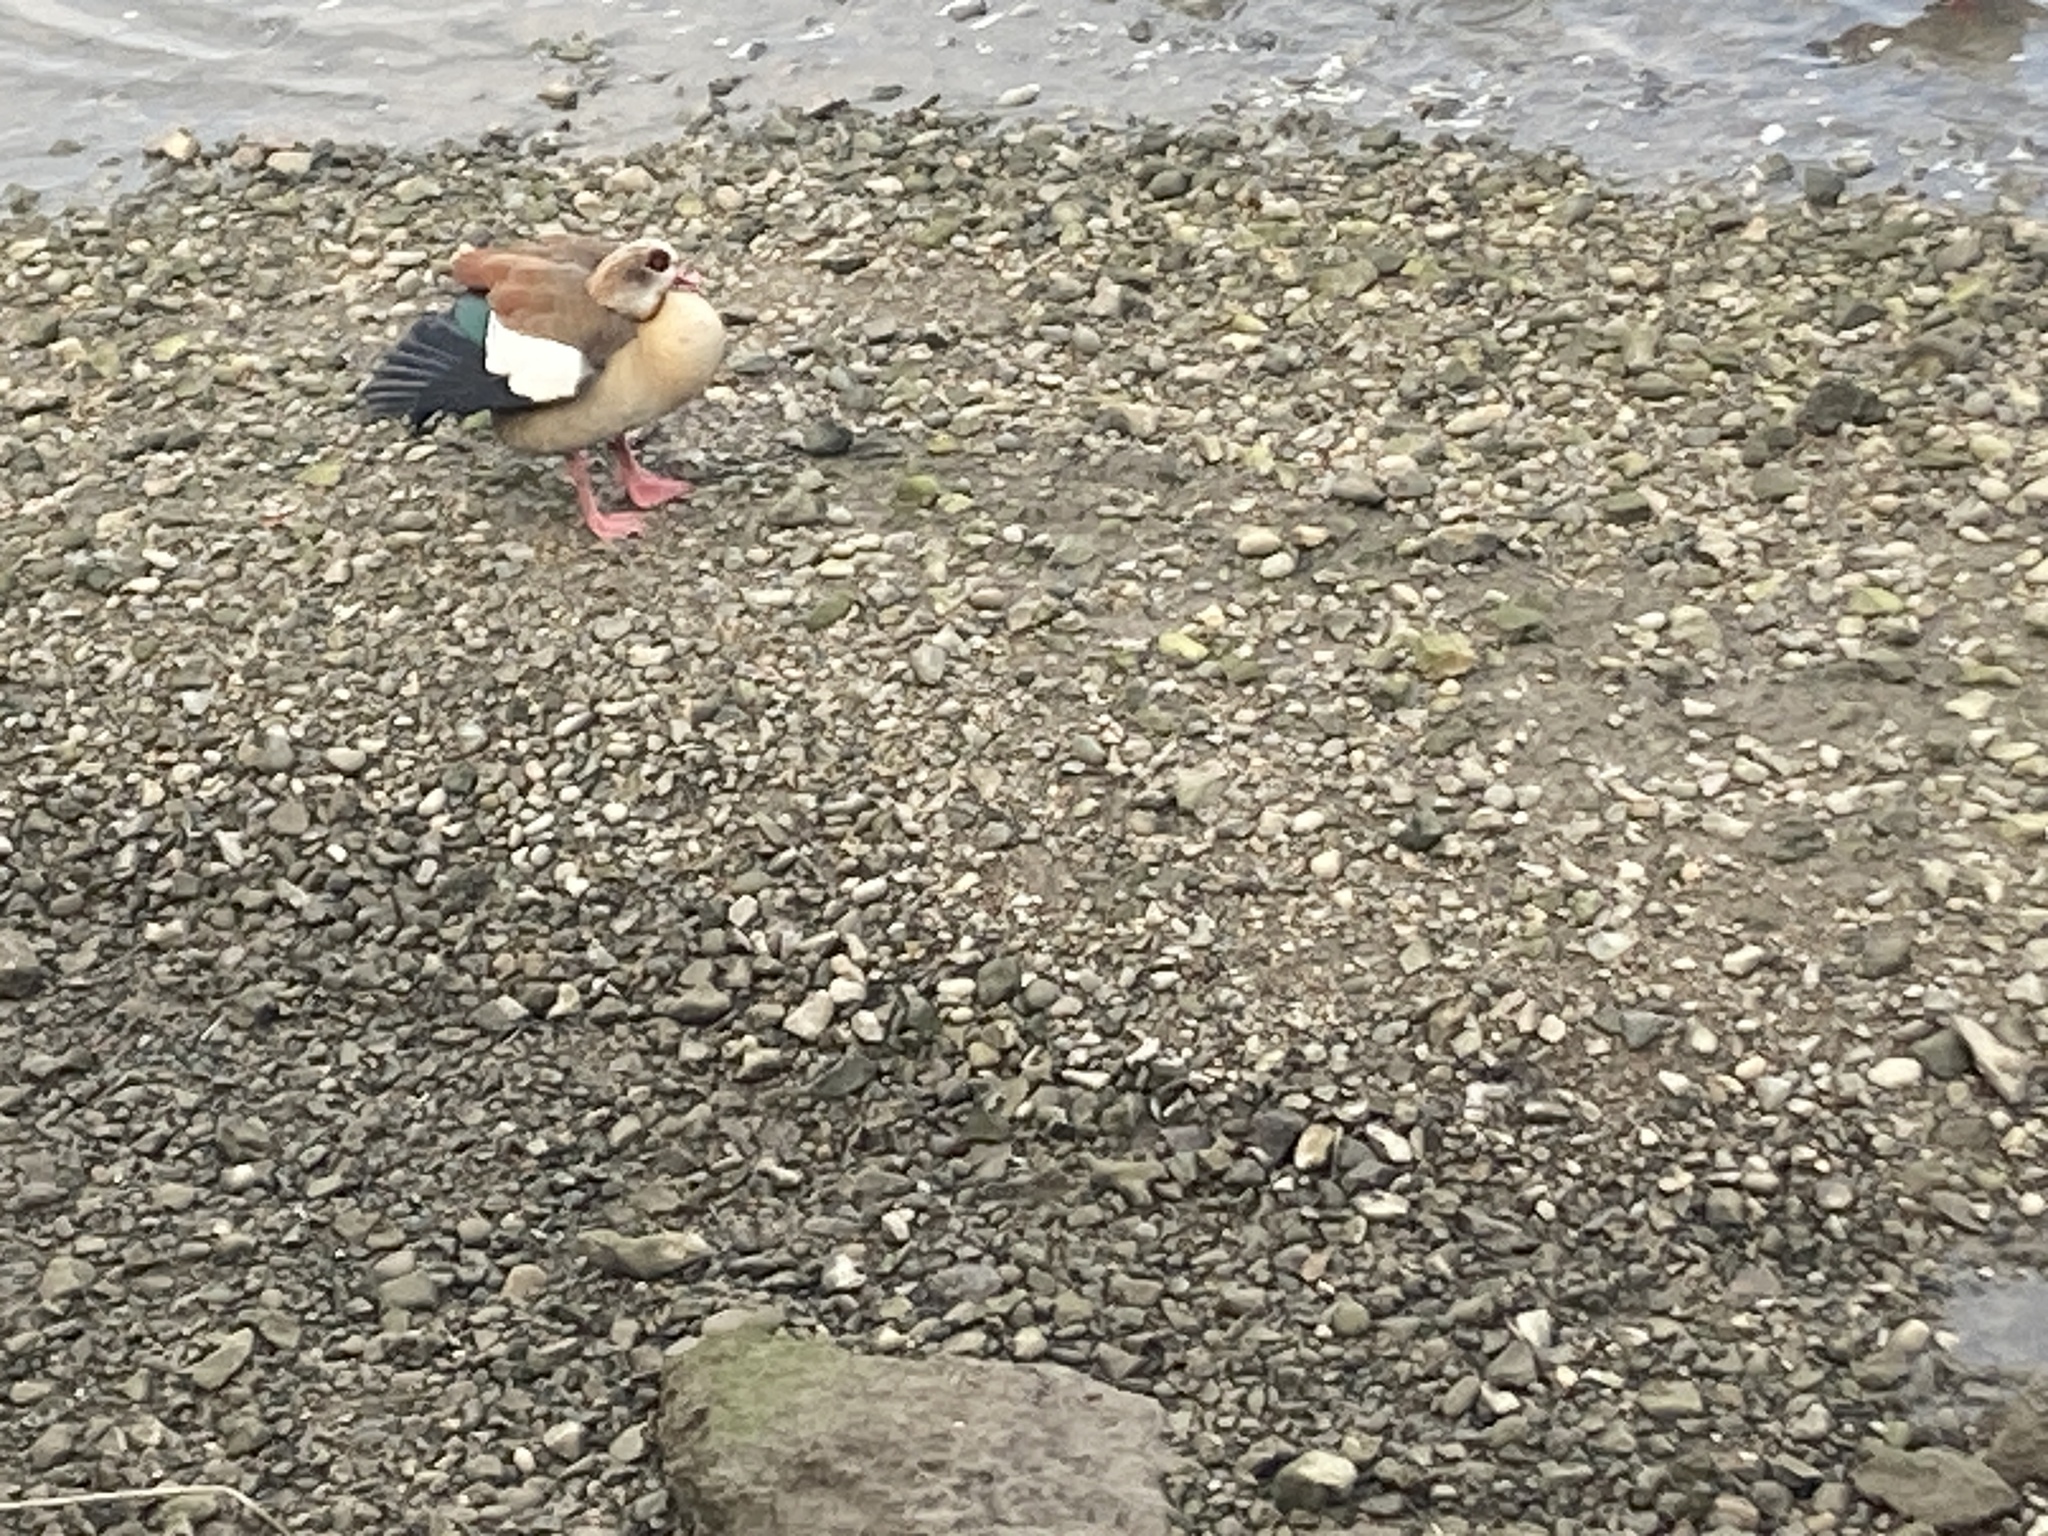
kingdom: Animalia
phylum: Chordata
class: Aves
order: Anseriformes
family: Anatidae
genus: Alopochen
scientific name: Alopochen aegyptiaca
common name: Egyptian goose
